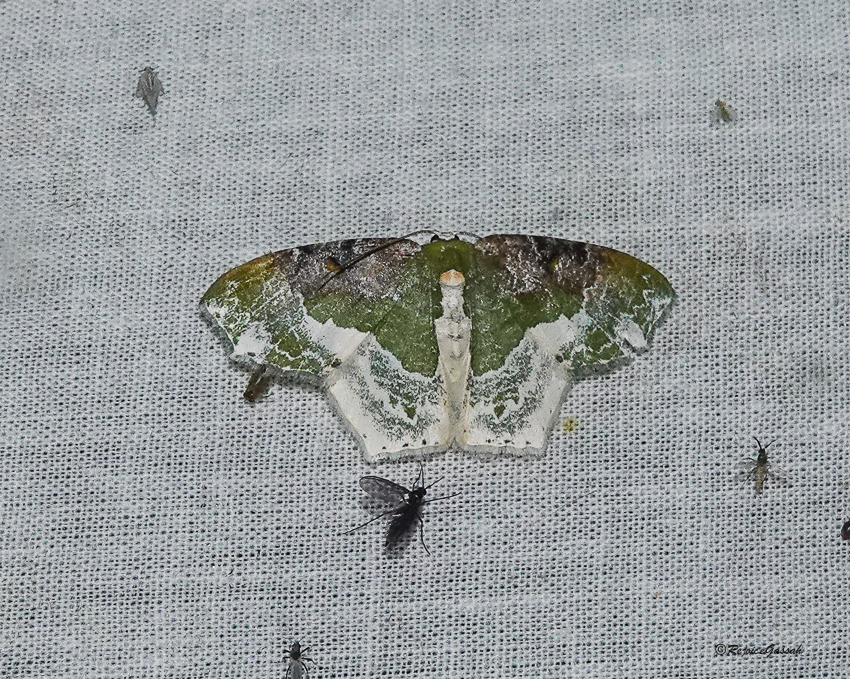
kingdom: Animalia
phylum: Arthropoda
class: Insecta
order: Lepidoptera
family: Geometridae
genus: Eucyclodes
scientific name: Eucyclodes semialba
